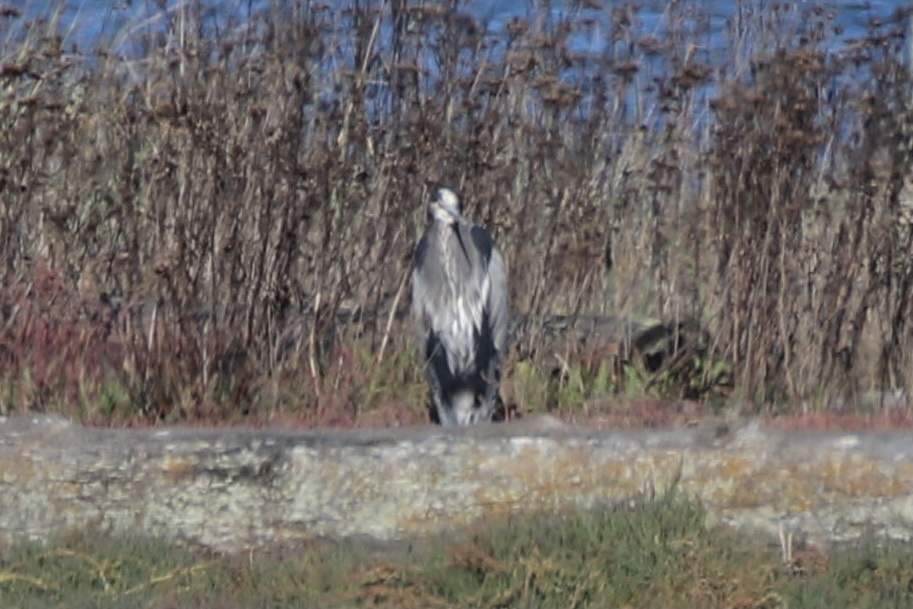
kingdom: Animalia
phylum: Chordata
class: Aves
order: Pelecaniformes
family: Ardeidae
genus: Ardea
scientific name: Ardea herodias
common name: Great blue heron
